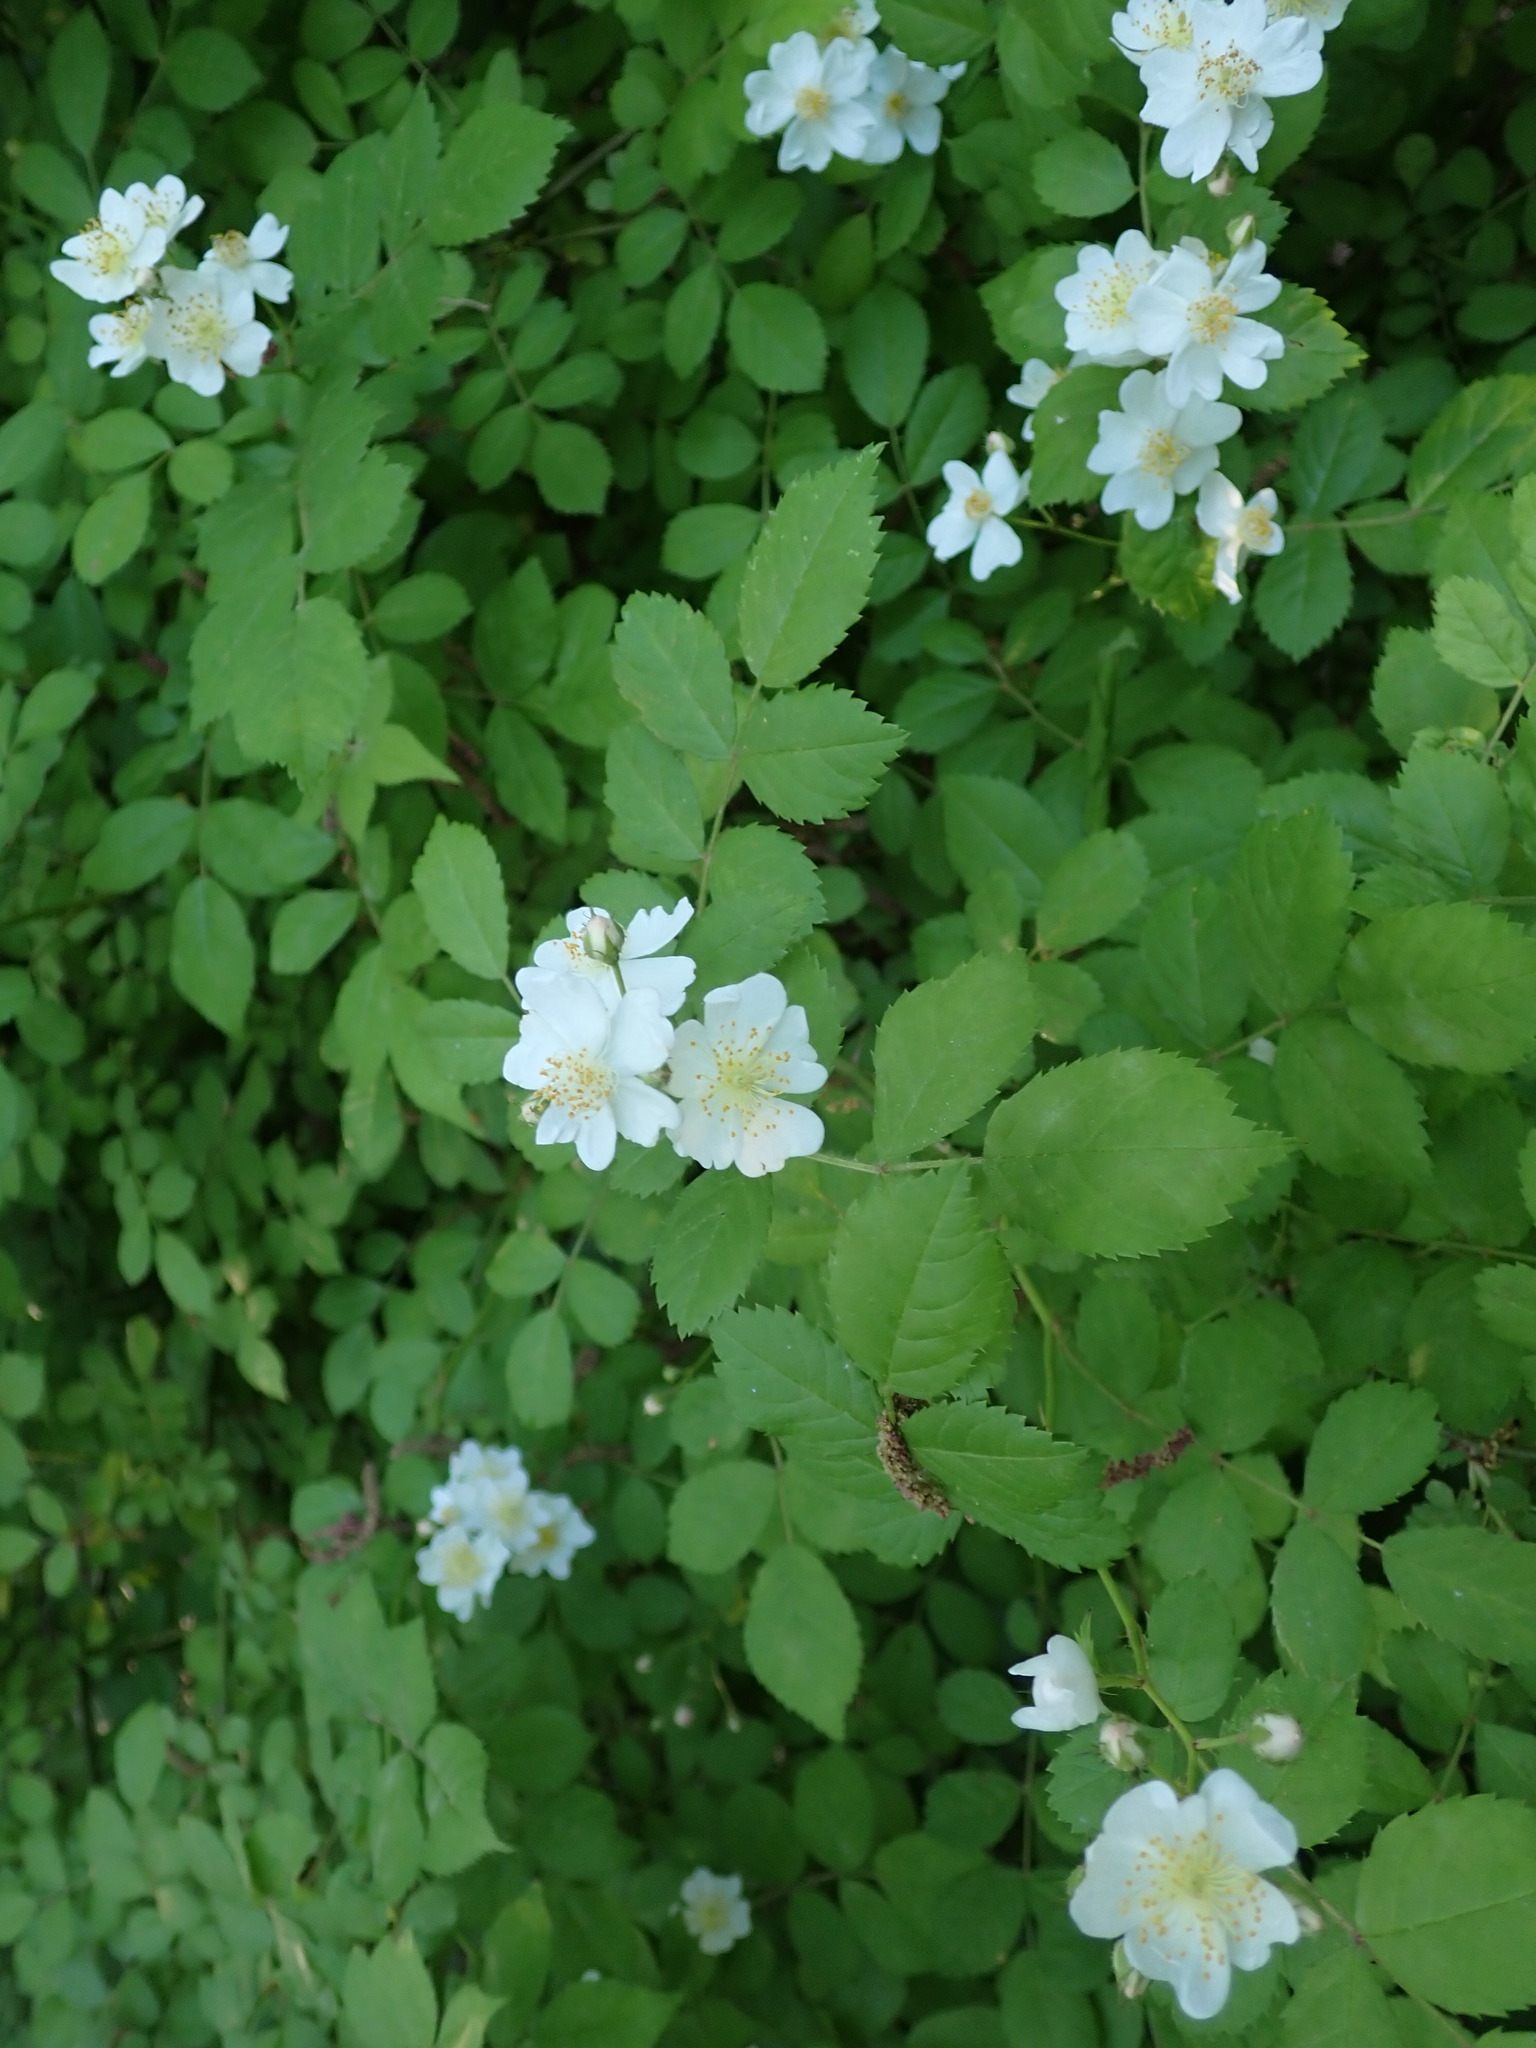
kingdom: Plantae
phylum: Tracheophyta
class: Magnoliopsida
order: Rosales
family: Rosaceae
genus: Rosa
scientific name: Rosa multiflora
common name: Multiflora rose
